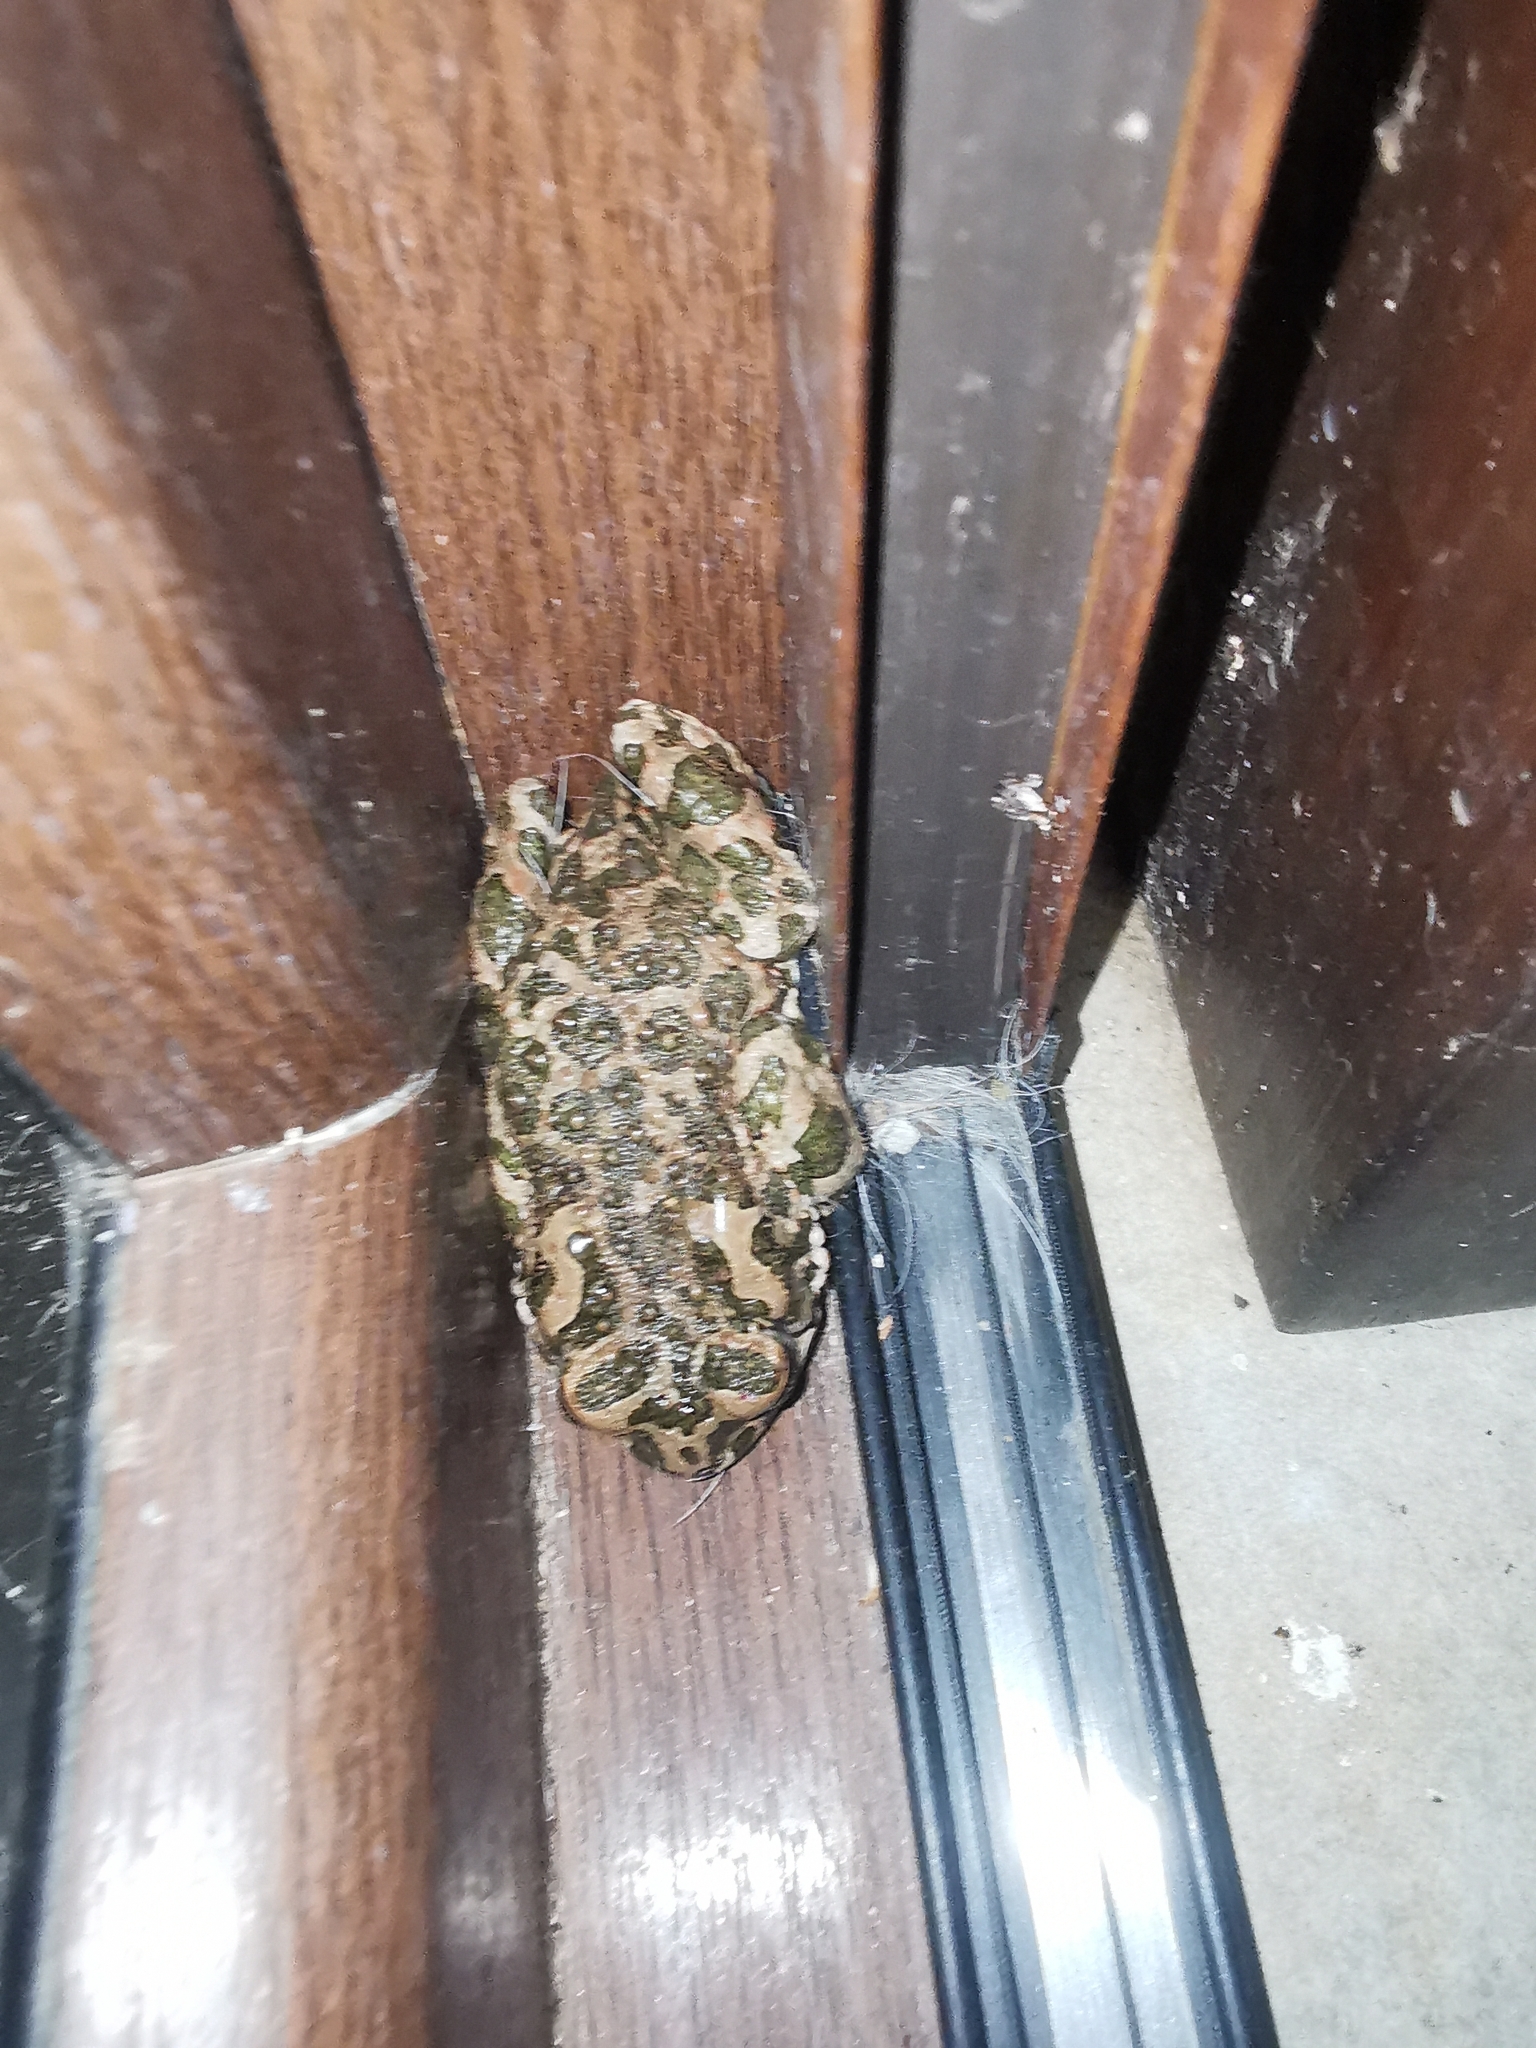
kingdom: Animalia
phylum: Chordata
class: Amphibia
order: Anura
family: Bufonidae
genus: Bufotes
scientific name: Bufotes viridis
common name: European green toad
